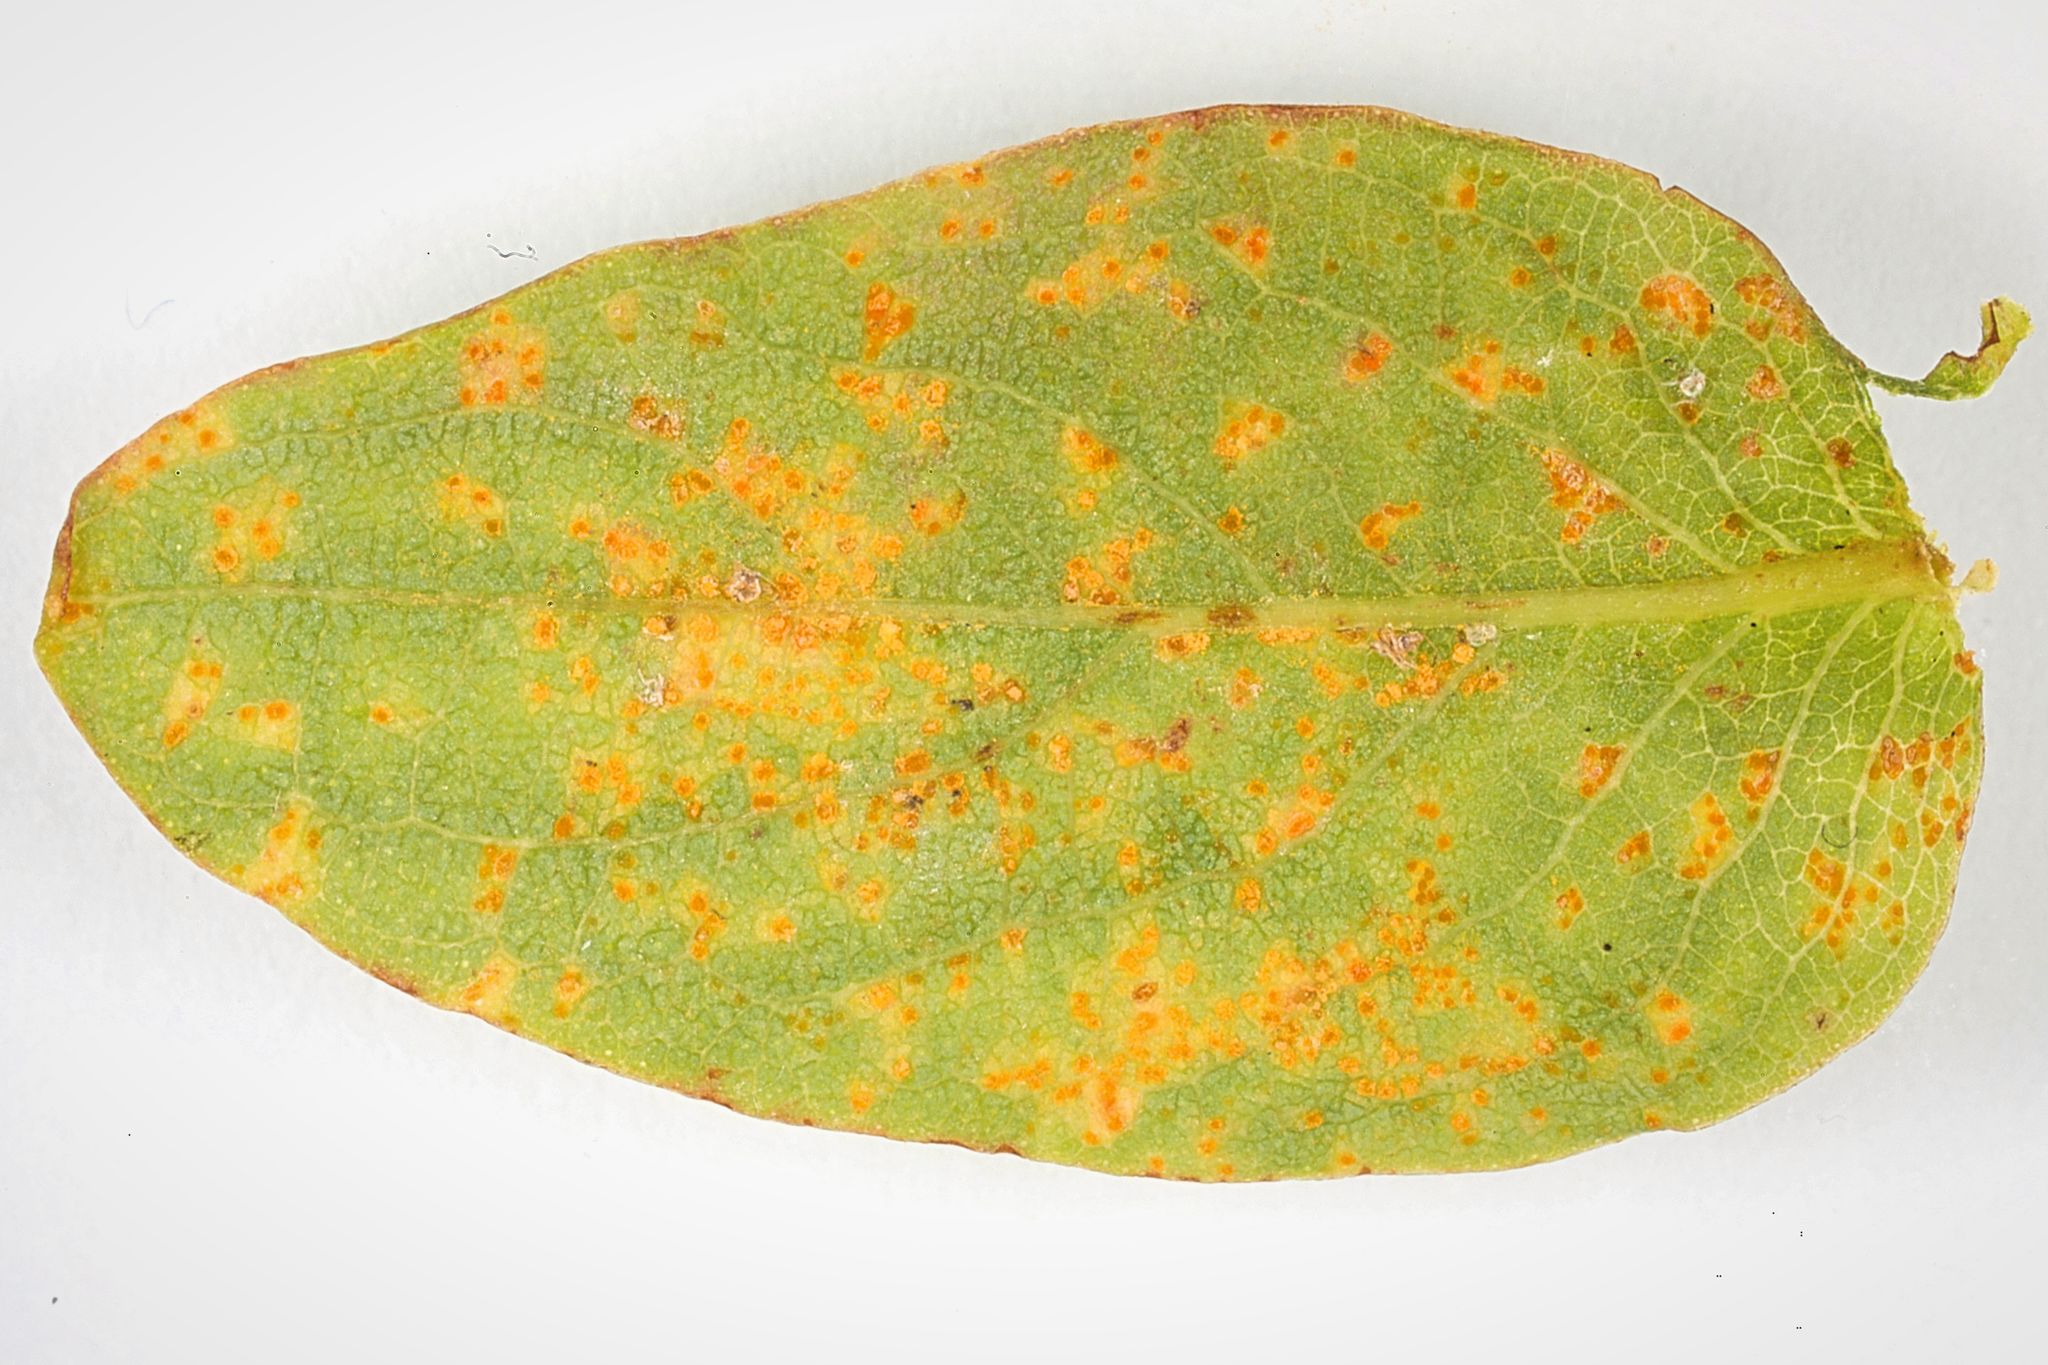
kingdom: Fungi
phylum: Basidiomycota
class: Pucciniomycetes
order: Pucciniales
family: Melampsoraceae
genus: Melampsora
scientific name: Melampsora
